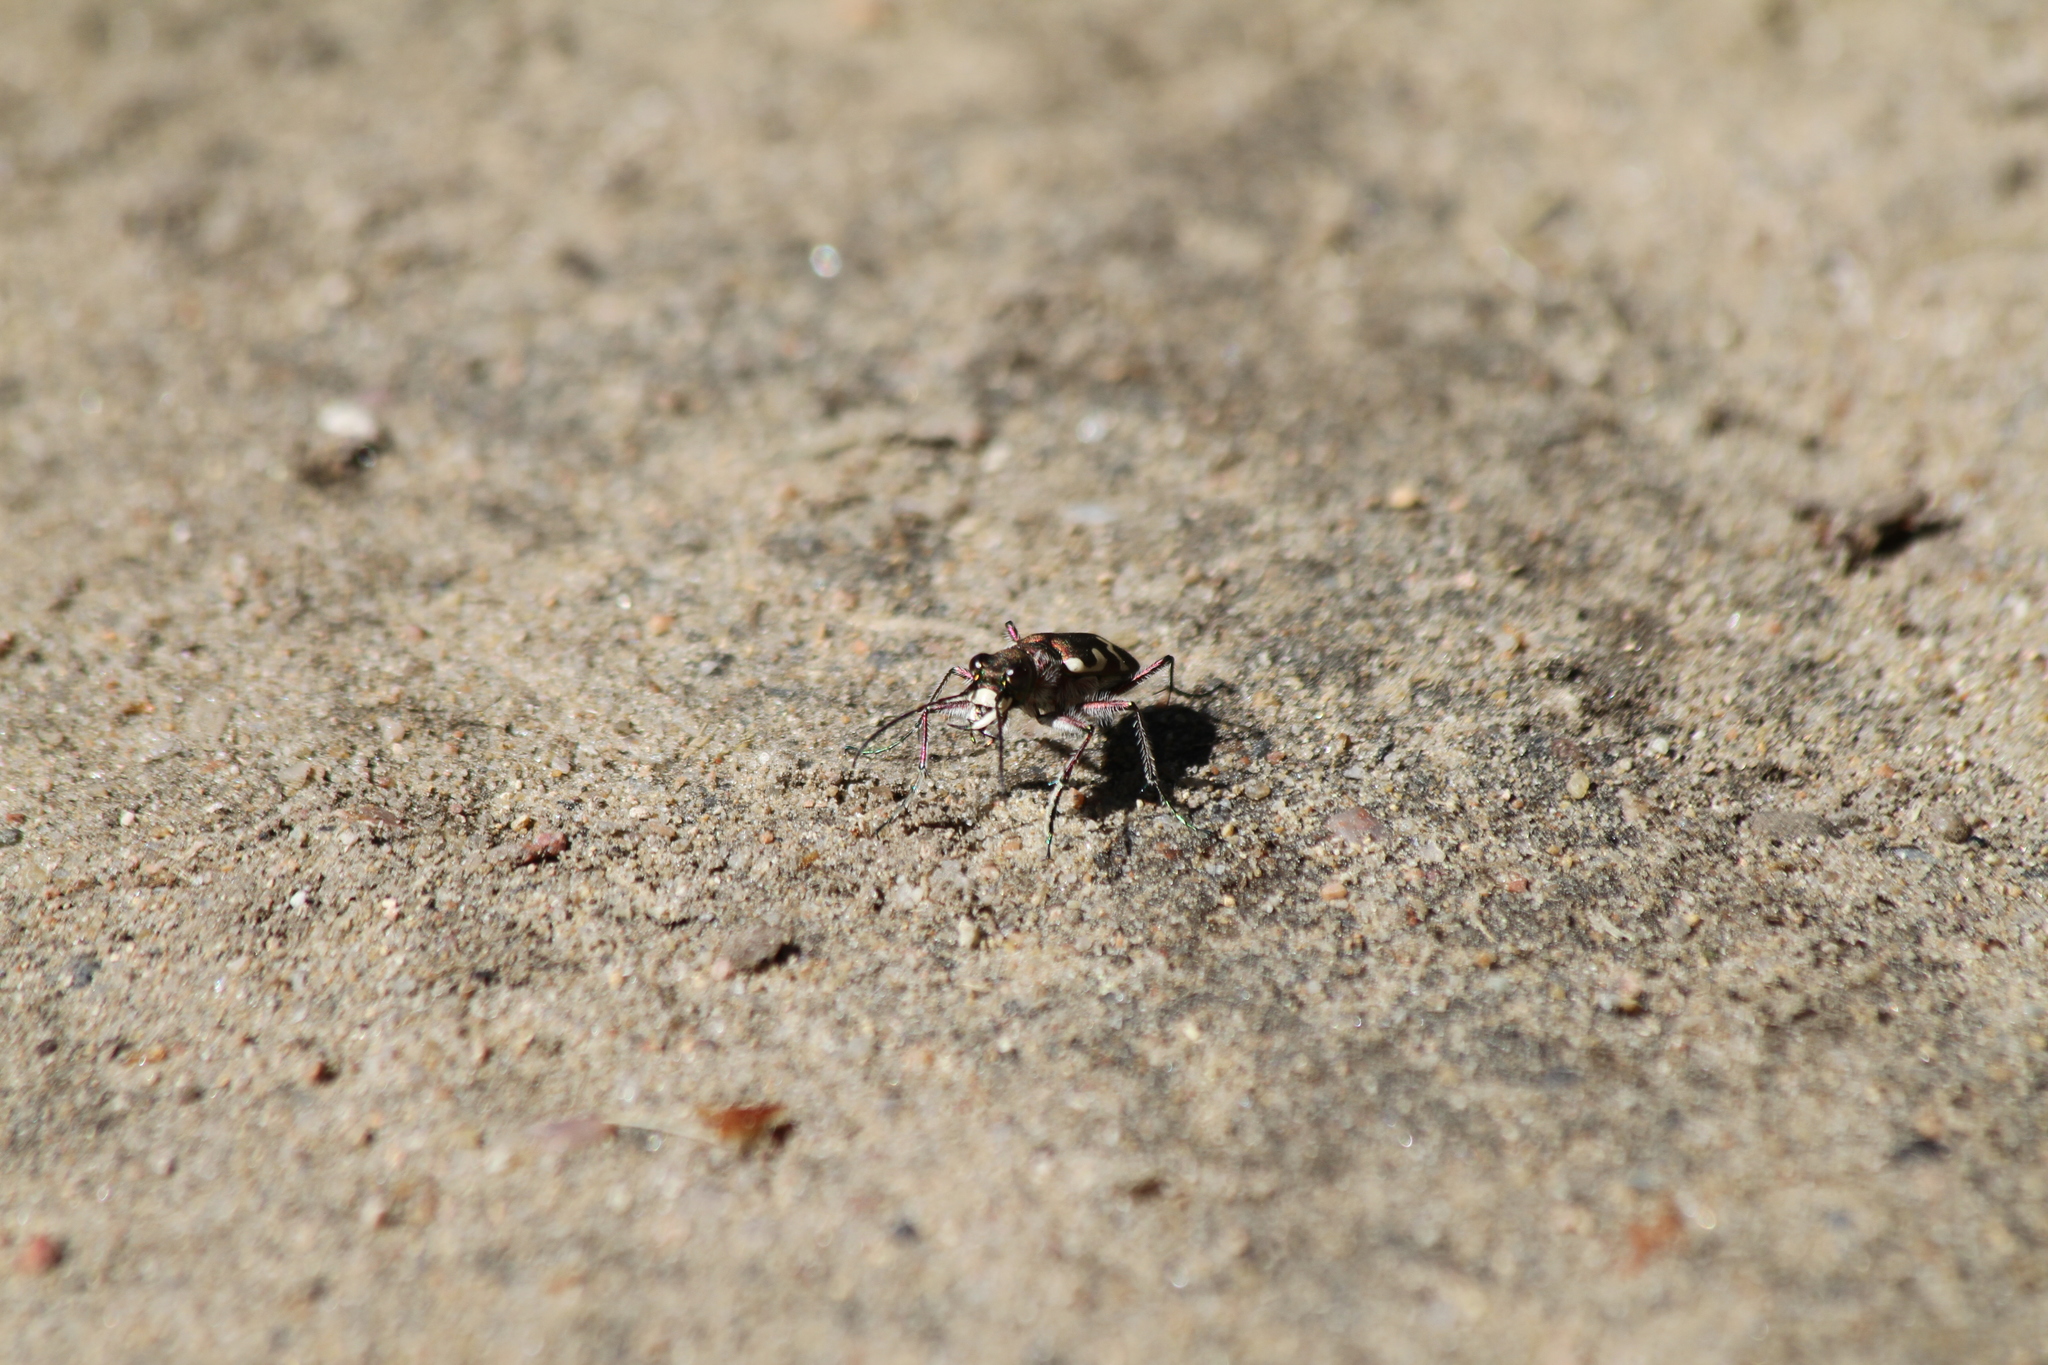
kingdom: Animalia
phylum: Arthropoda
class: Insecta
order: Coleoptera
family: Carabidae
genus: Cicindela
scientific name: Cicindela hybrida
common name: Northern dune tiger beetle
